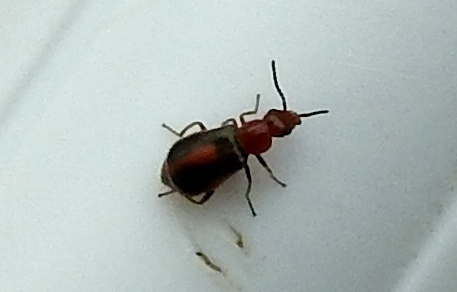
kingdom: Animalia
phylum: Arthropoda
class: Insecta
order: Coleoptera
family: Melyridae
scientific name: Melyridae
